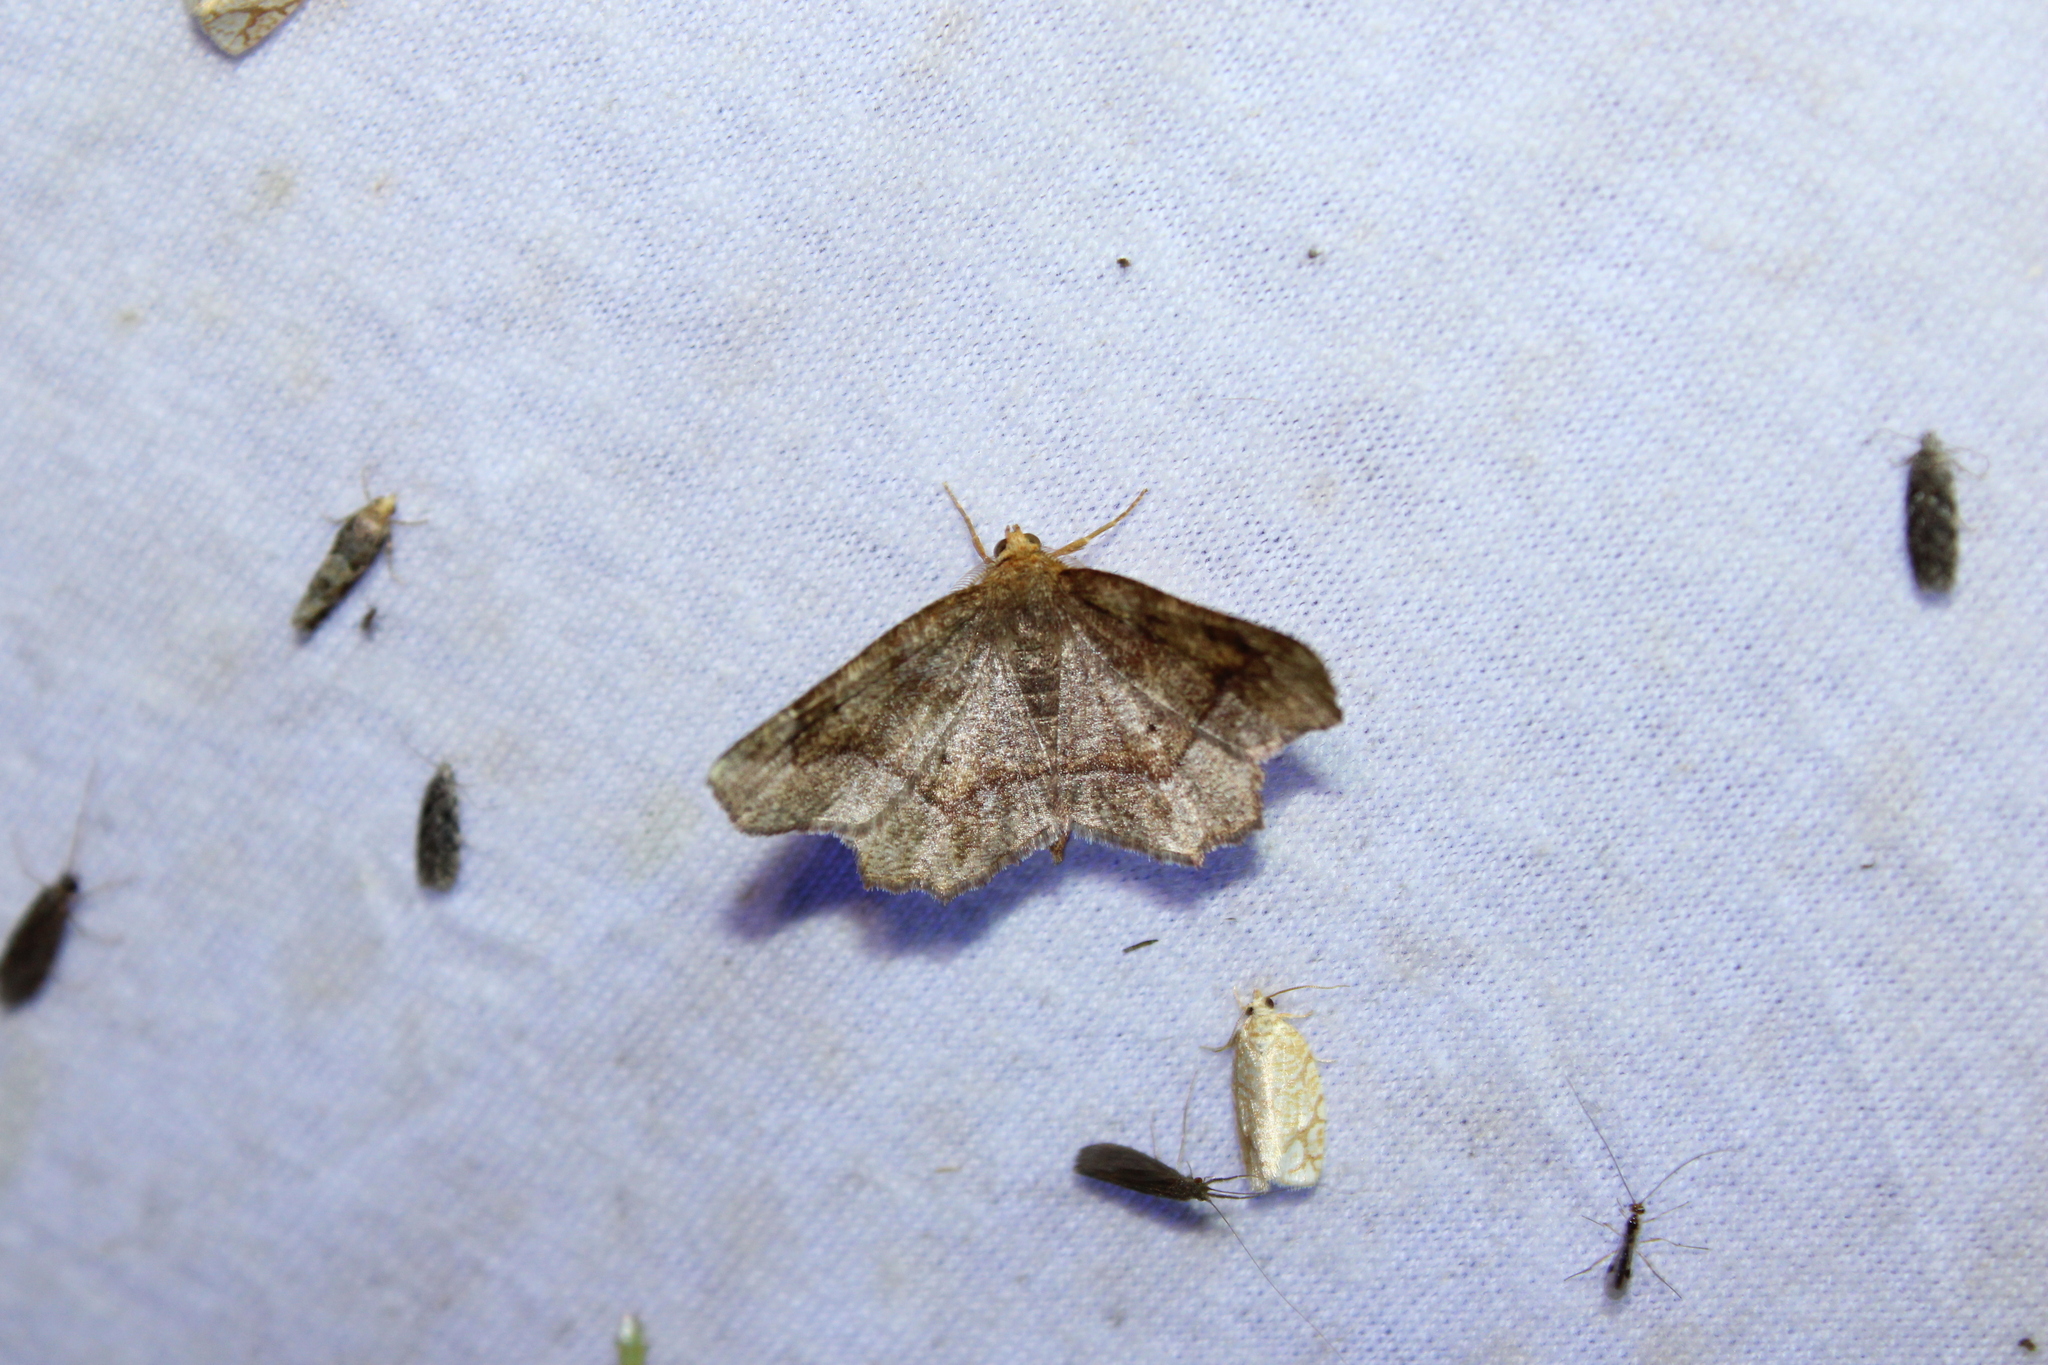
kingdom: Animalia
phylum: Arthropoda
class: Insecta
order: Lepidoptera
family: Geometridae
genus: Metarranthis
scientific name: Metarranthis hypochraria
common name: Common metarranthis
